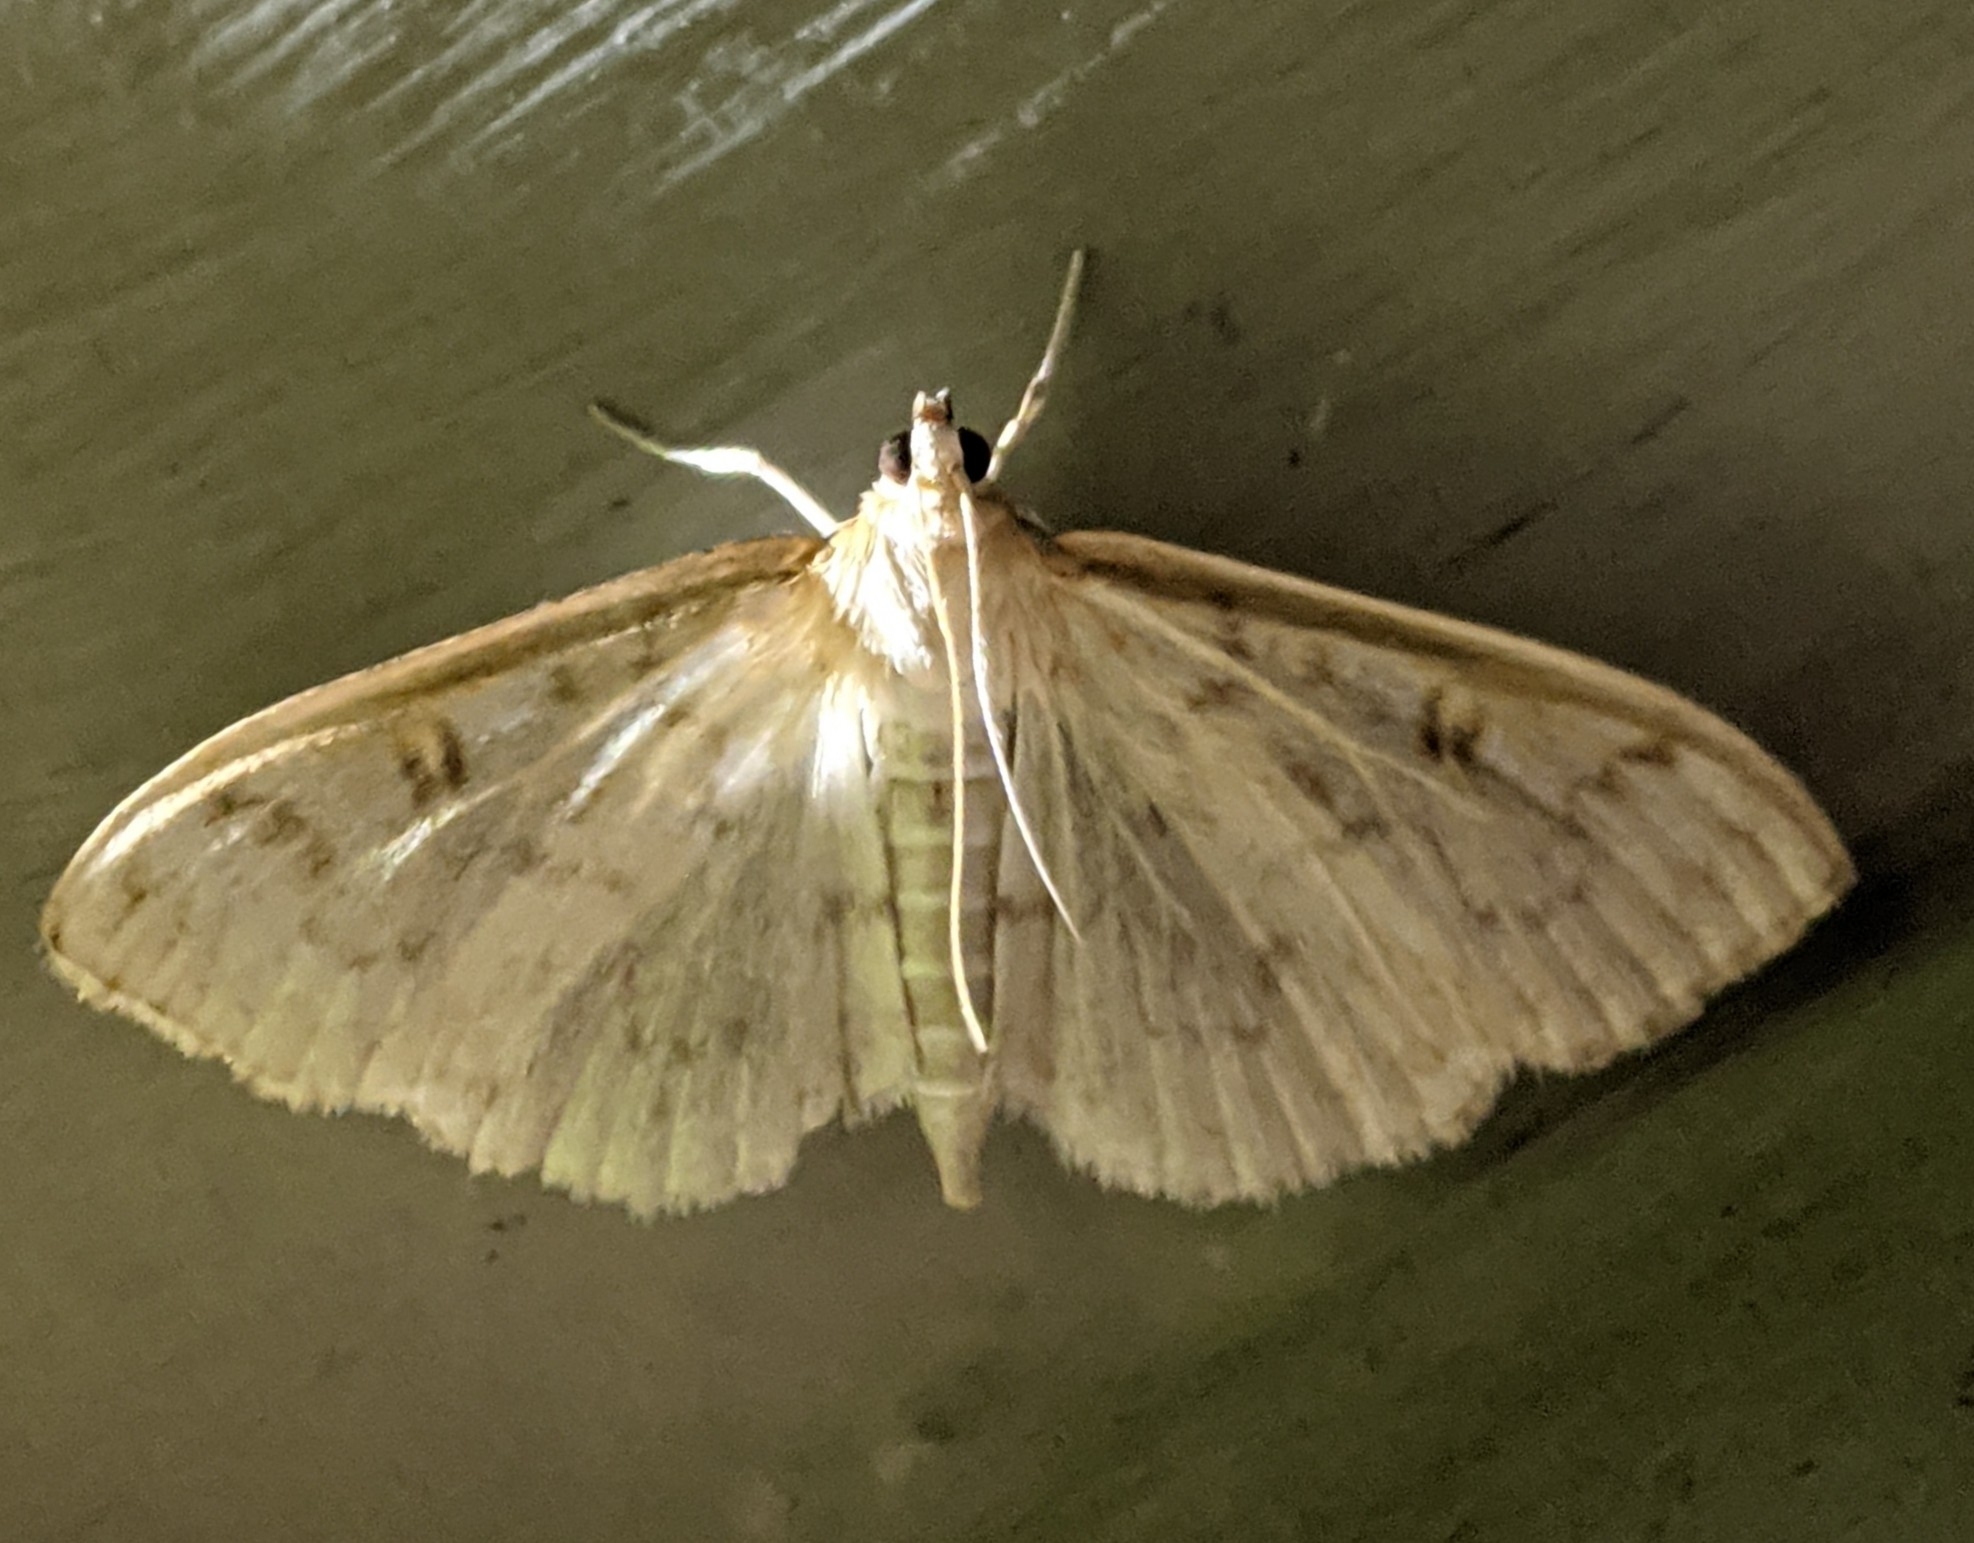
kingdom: Animalia
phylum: Arthropoda
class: Insecta
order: Lepidoptera
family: Crambidae
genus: Herpetogramma
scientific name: Herpetogramma aquilonalis
